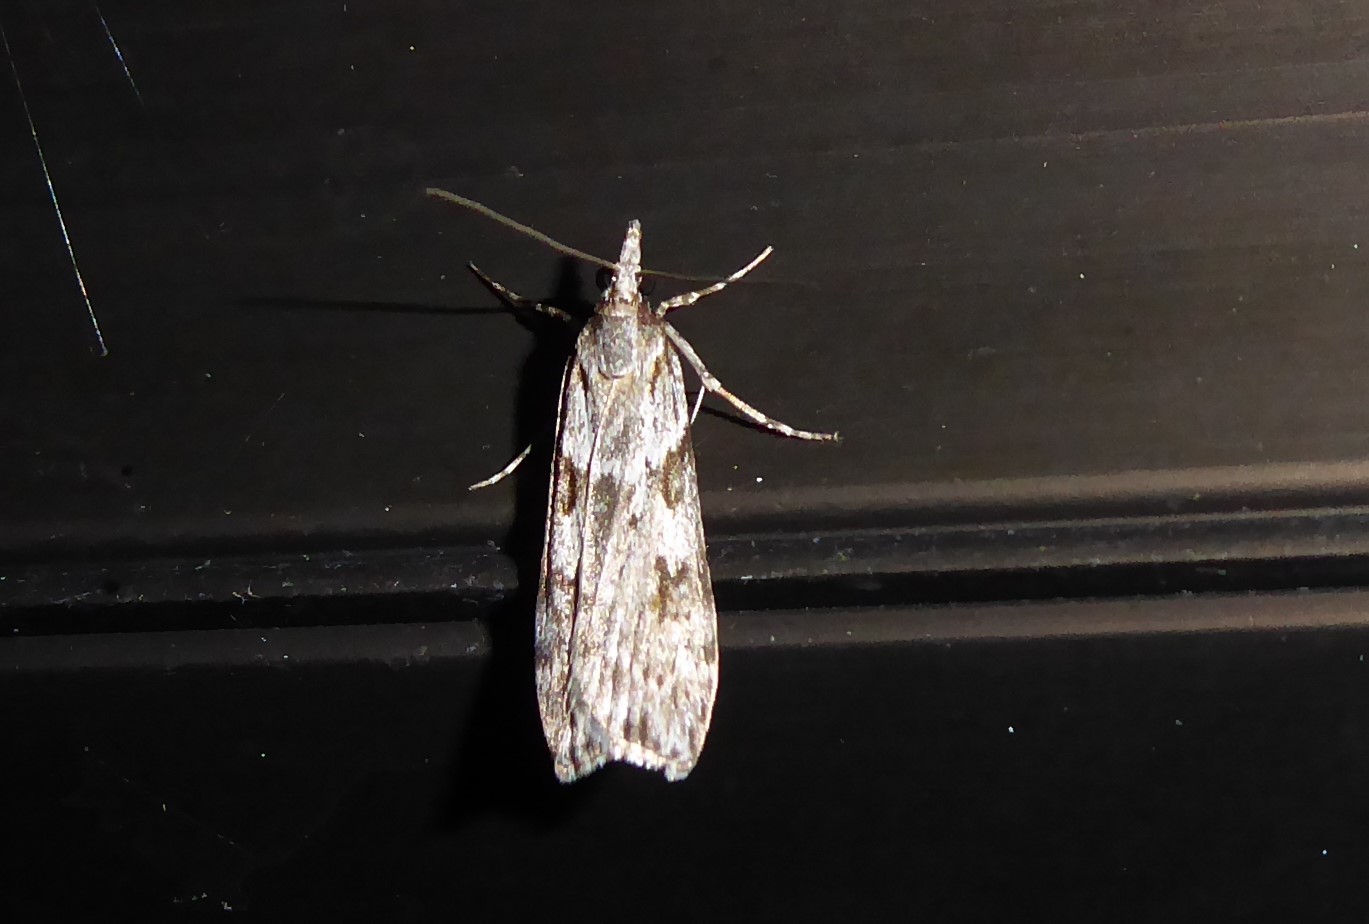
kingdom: Animalia
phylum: Arthropoda
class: Insecta
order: Lepidoptera
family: Crambidae
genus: Scoparia
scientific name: Scoparia halopis
